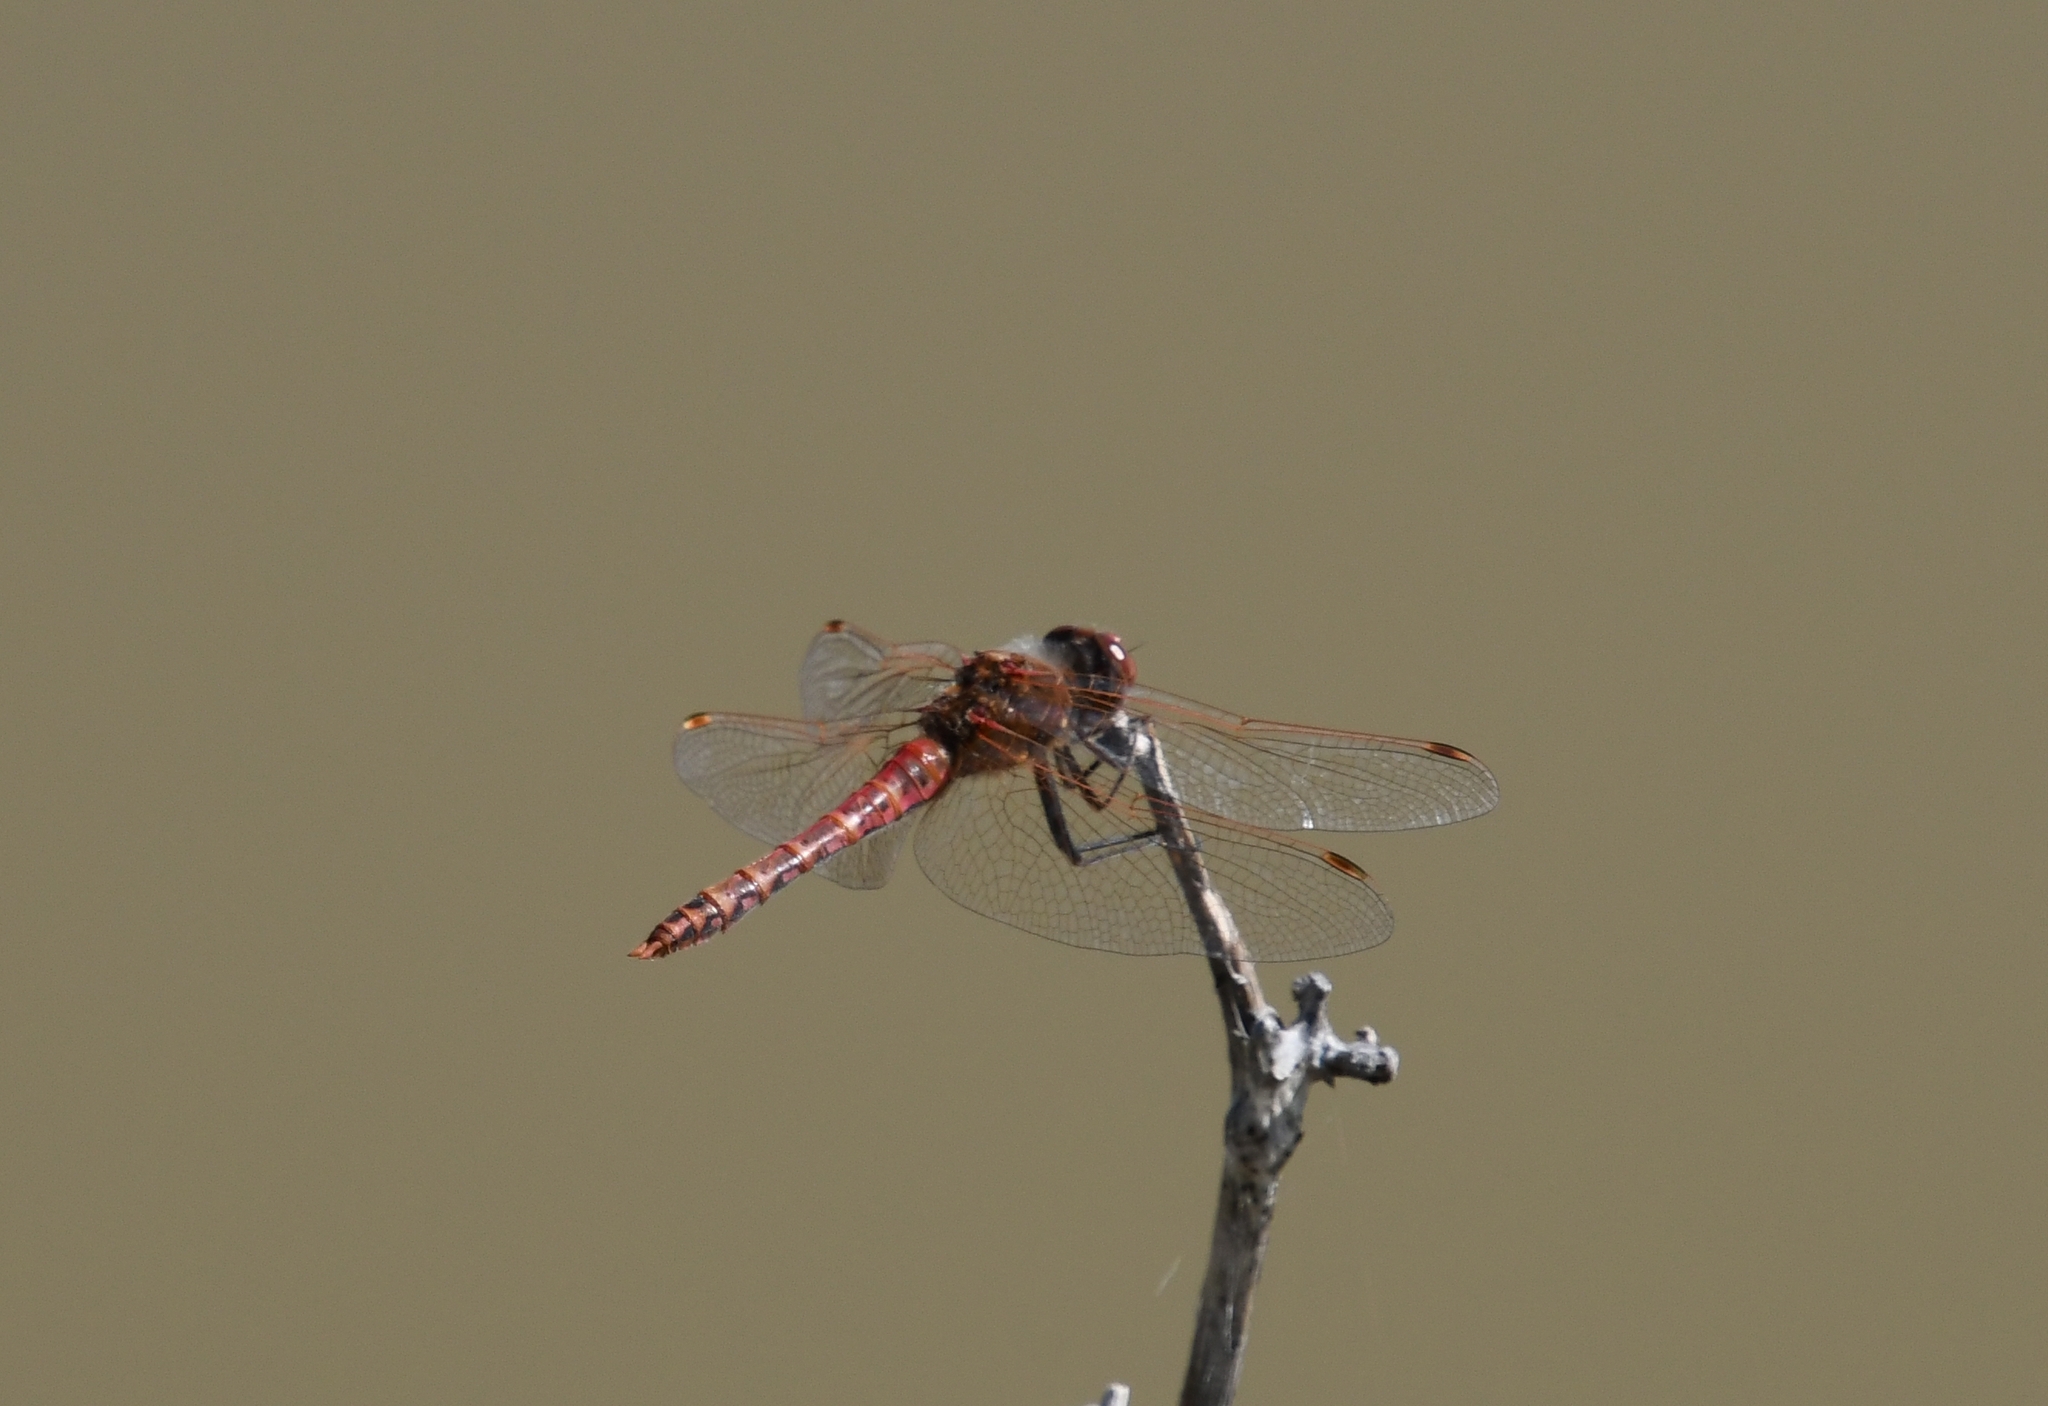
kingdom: Animalia
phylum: Arthropoda
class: Insecta
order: Odonata
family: Libellulidae
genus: Sympetrum
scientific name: Sympetrum corruptum
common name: Variegated meadowhawk
